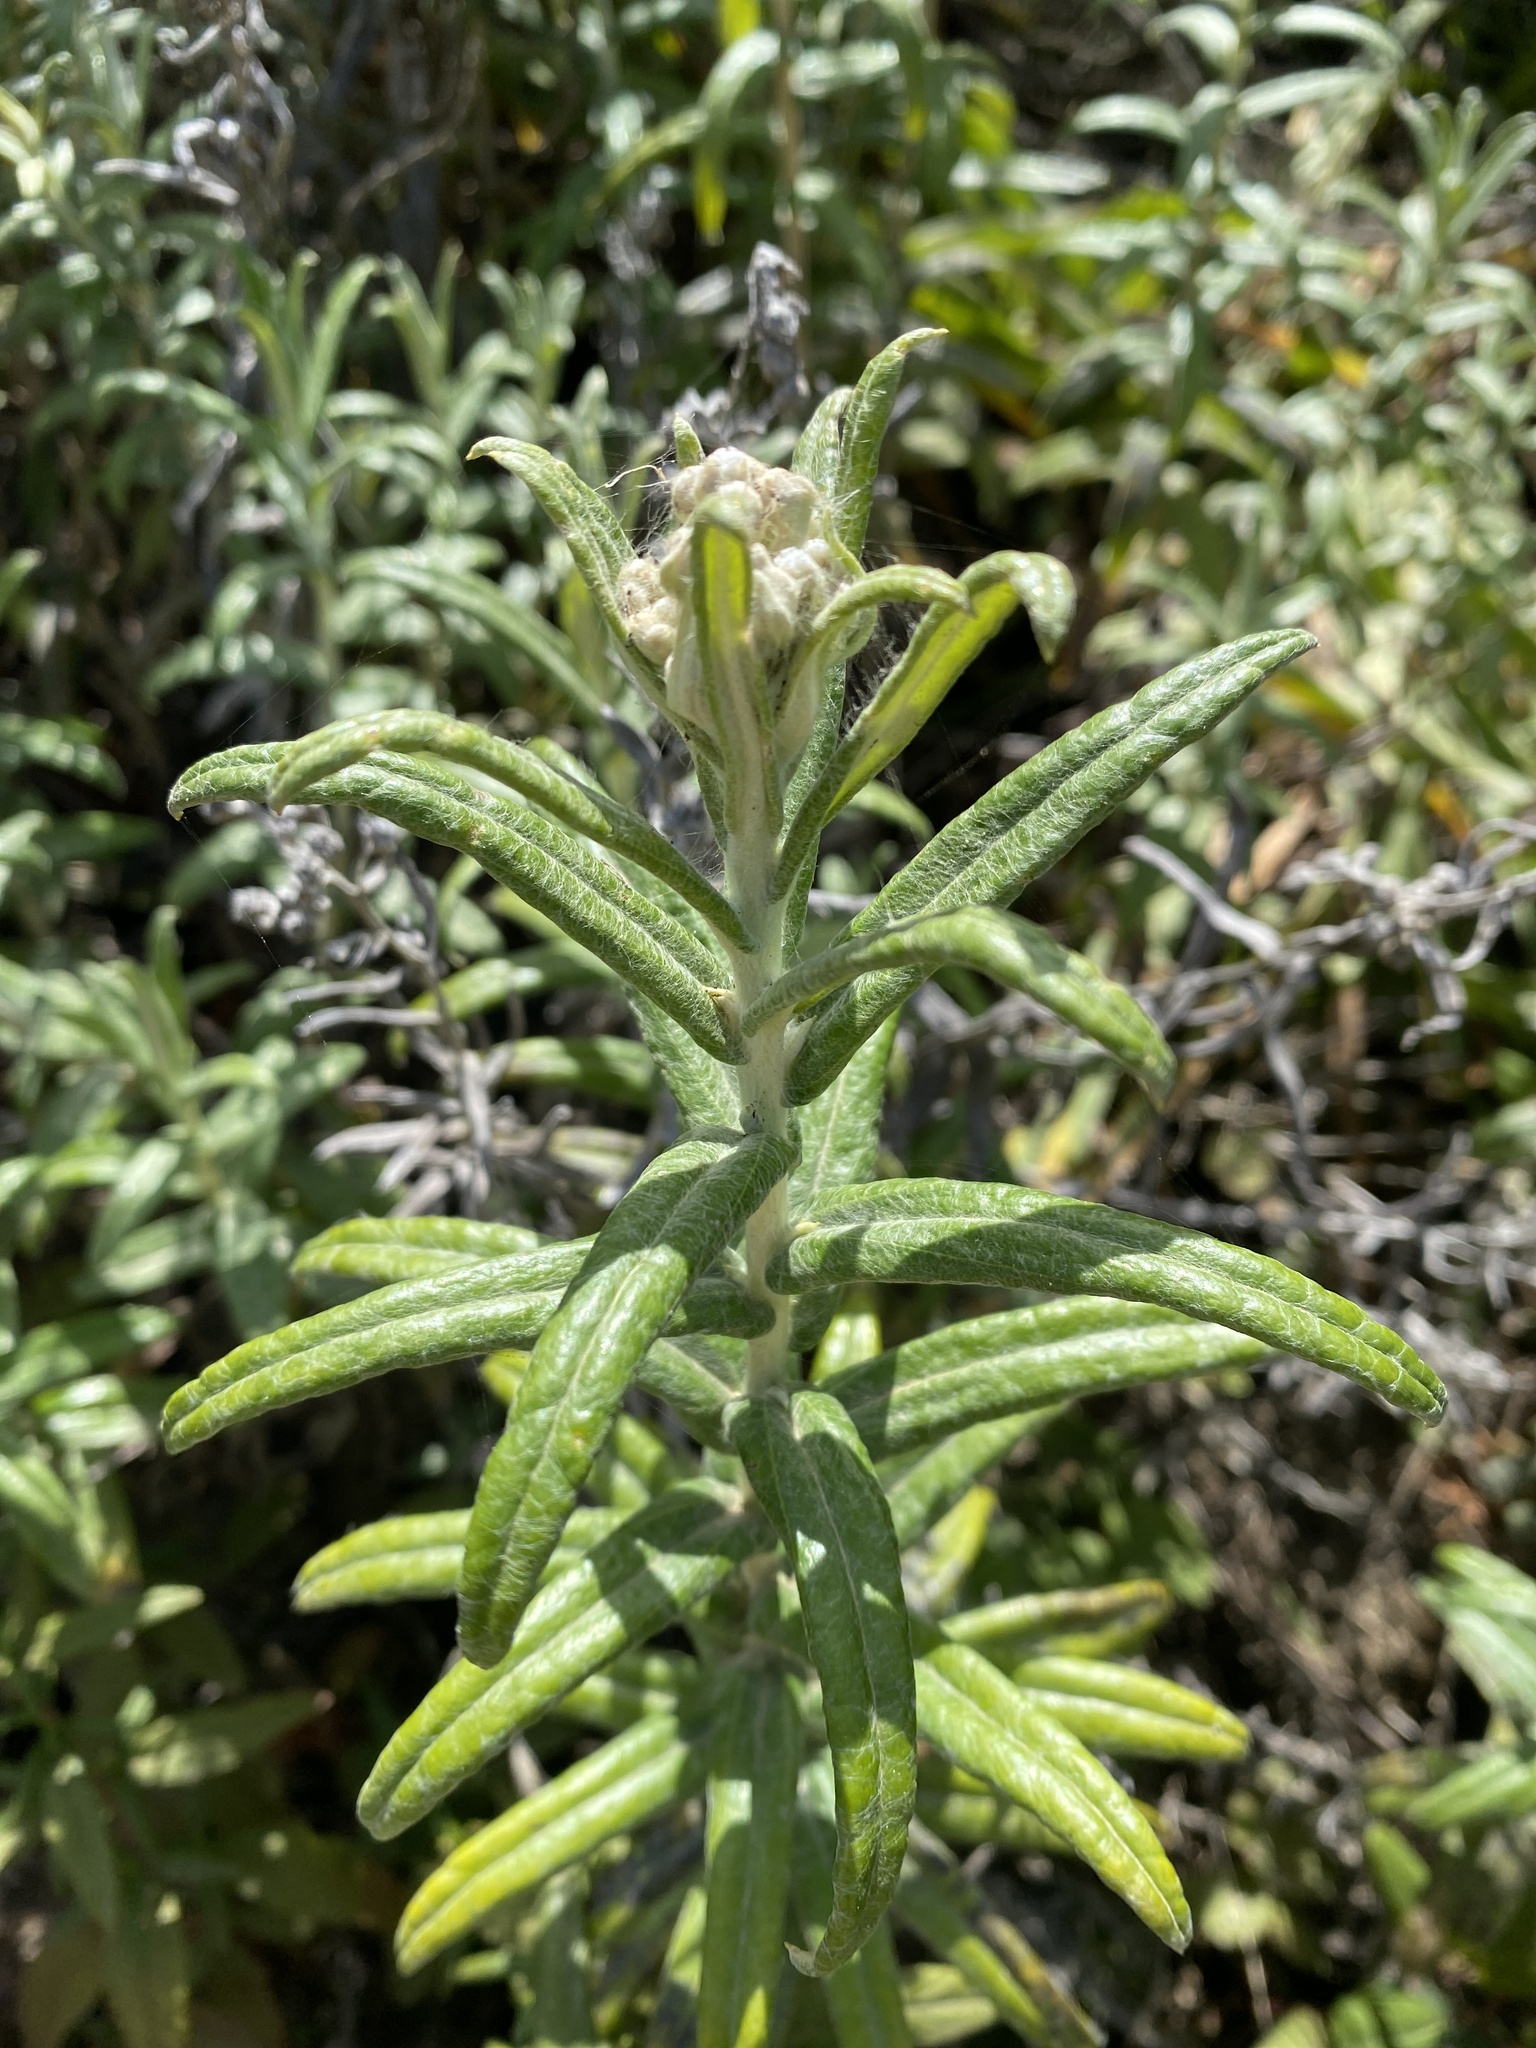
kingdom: Plantae
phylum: Tracheophyta
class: Magnoliopsida
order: Asterales
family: Asteraceae
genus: Anaphalis
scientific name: Anaphalis margaritacea
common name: Pearly everlasting
